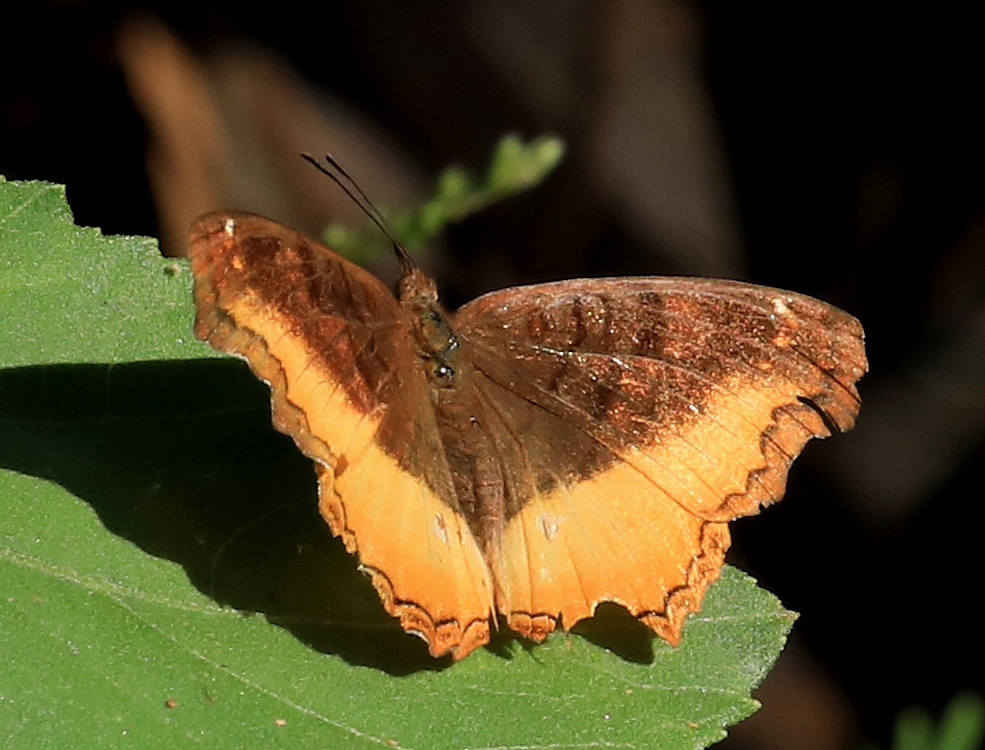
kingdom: Animalia
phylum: Arthropoda
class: Insecta
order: Lepidoptera
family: Nymphalidae
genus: Eurytela
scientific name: Eurytela dryope
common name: Golden piper
